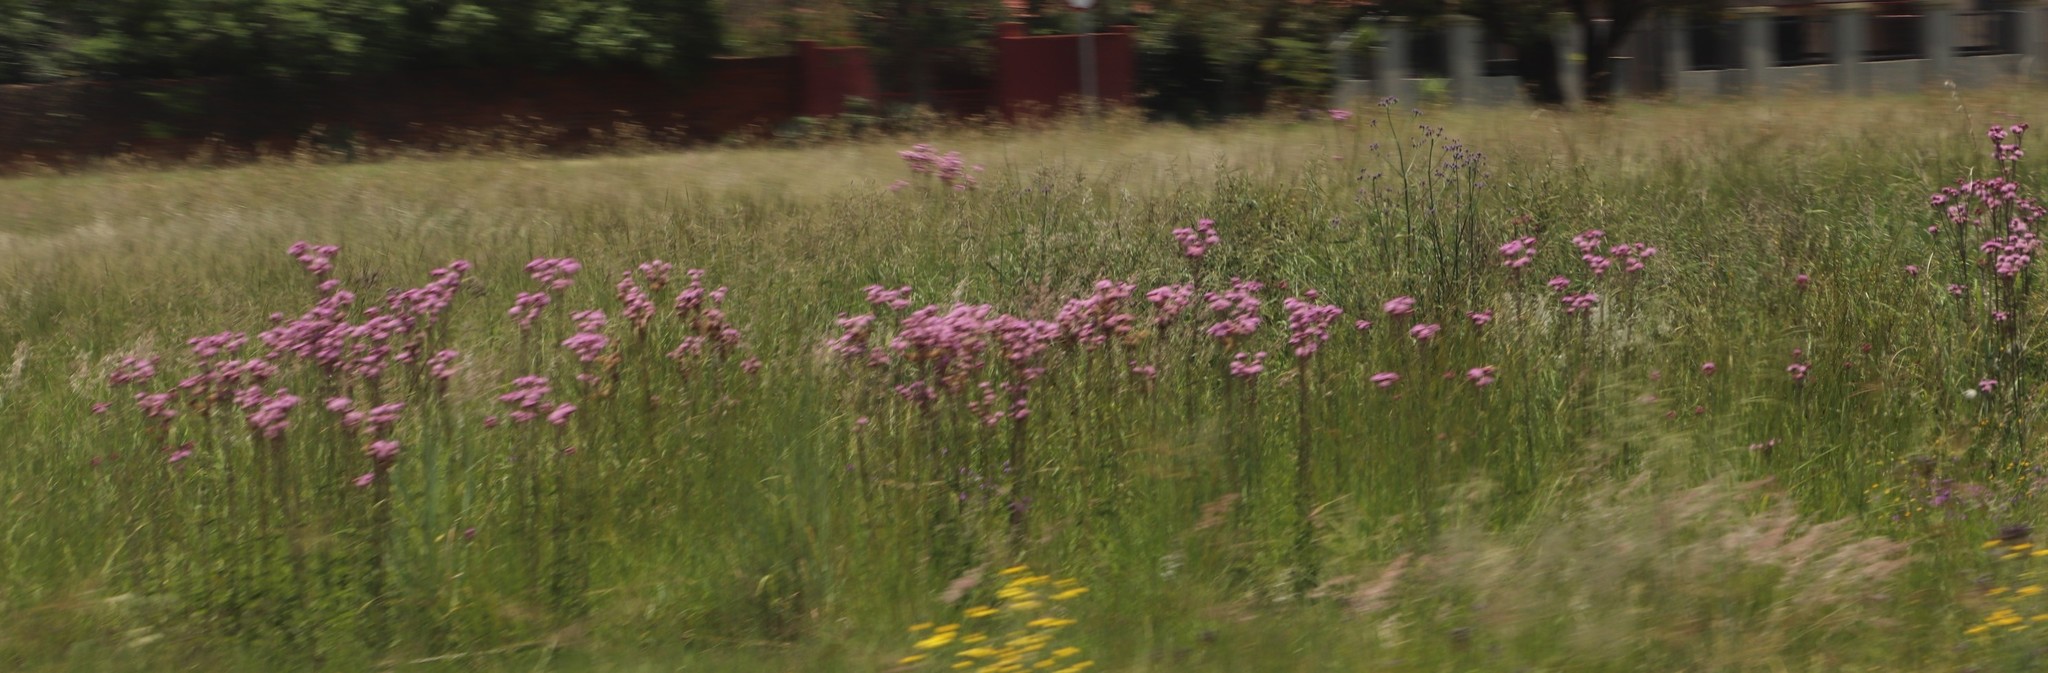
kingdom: Plantae
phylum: Tracheophyta
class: Magnoliopsida
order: Asterales
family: Asteraceae
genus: Campuloclinium
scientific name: Campuloclinium macrocephalum
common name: Pompomweed
